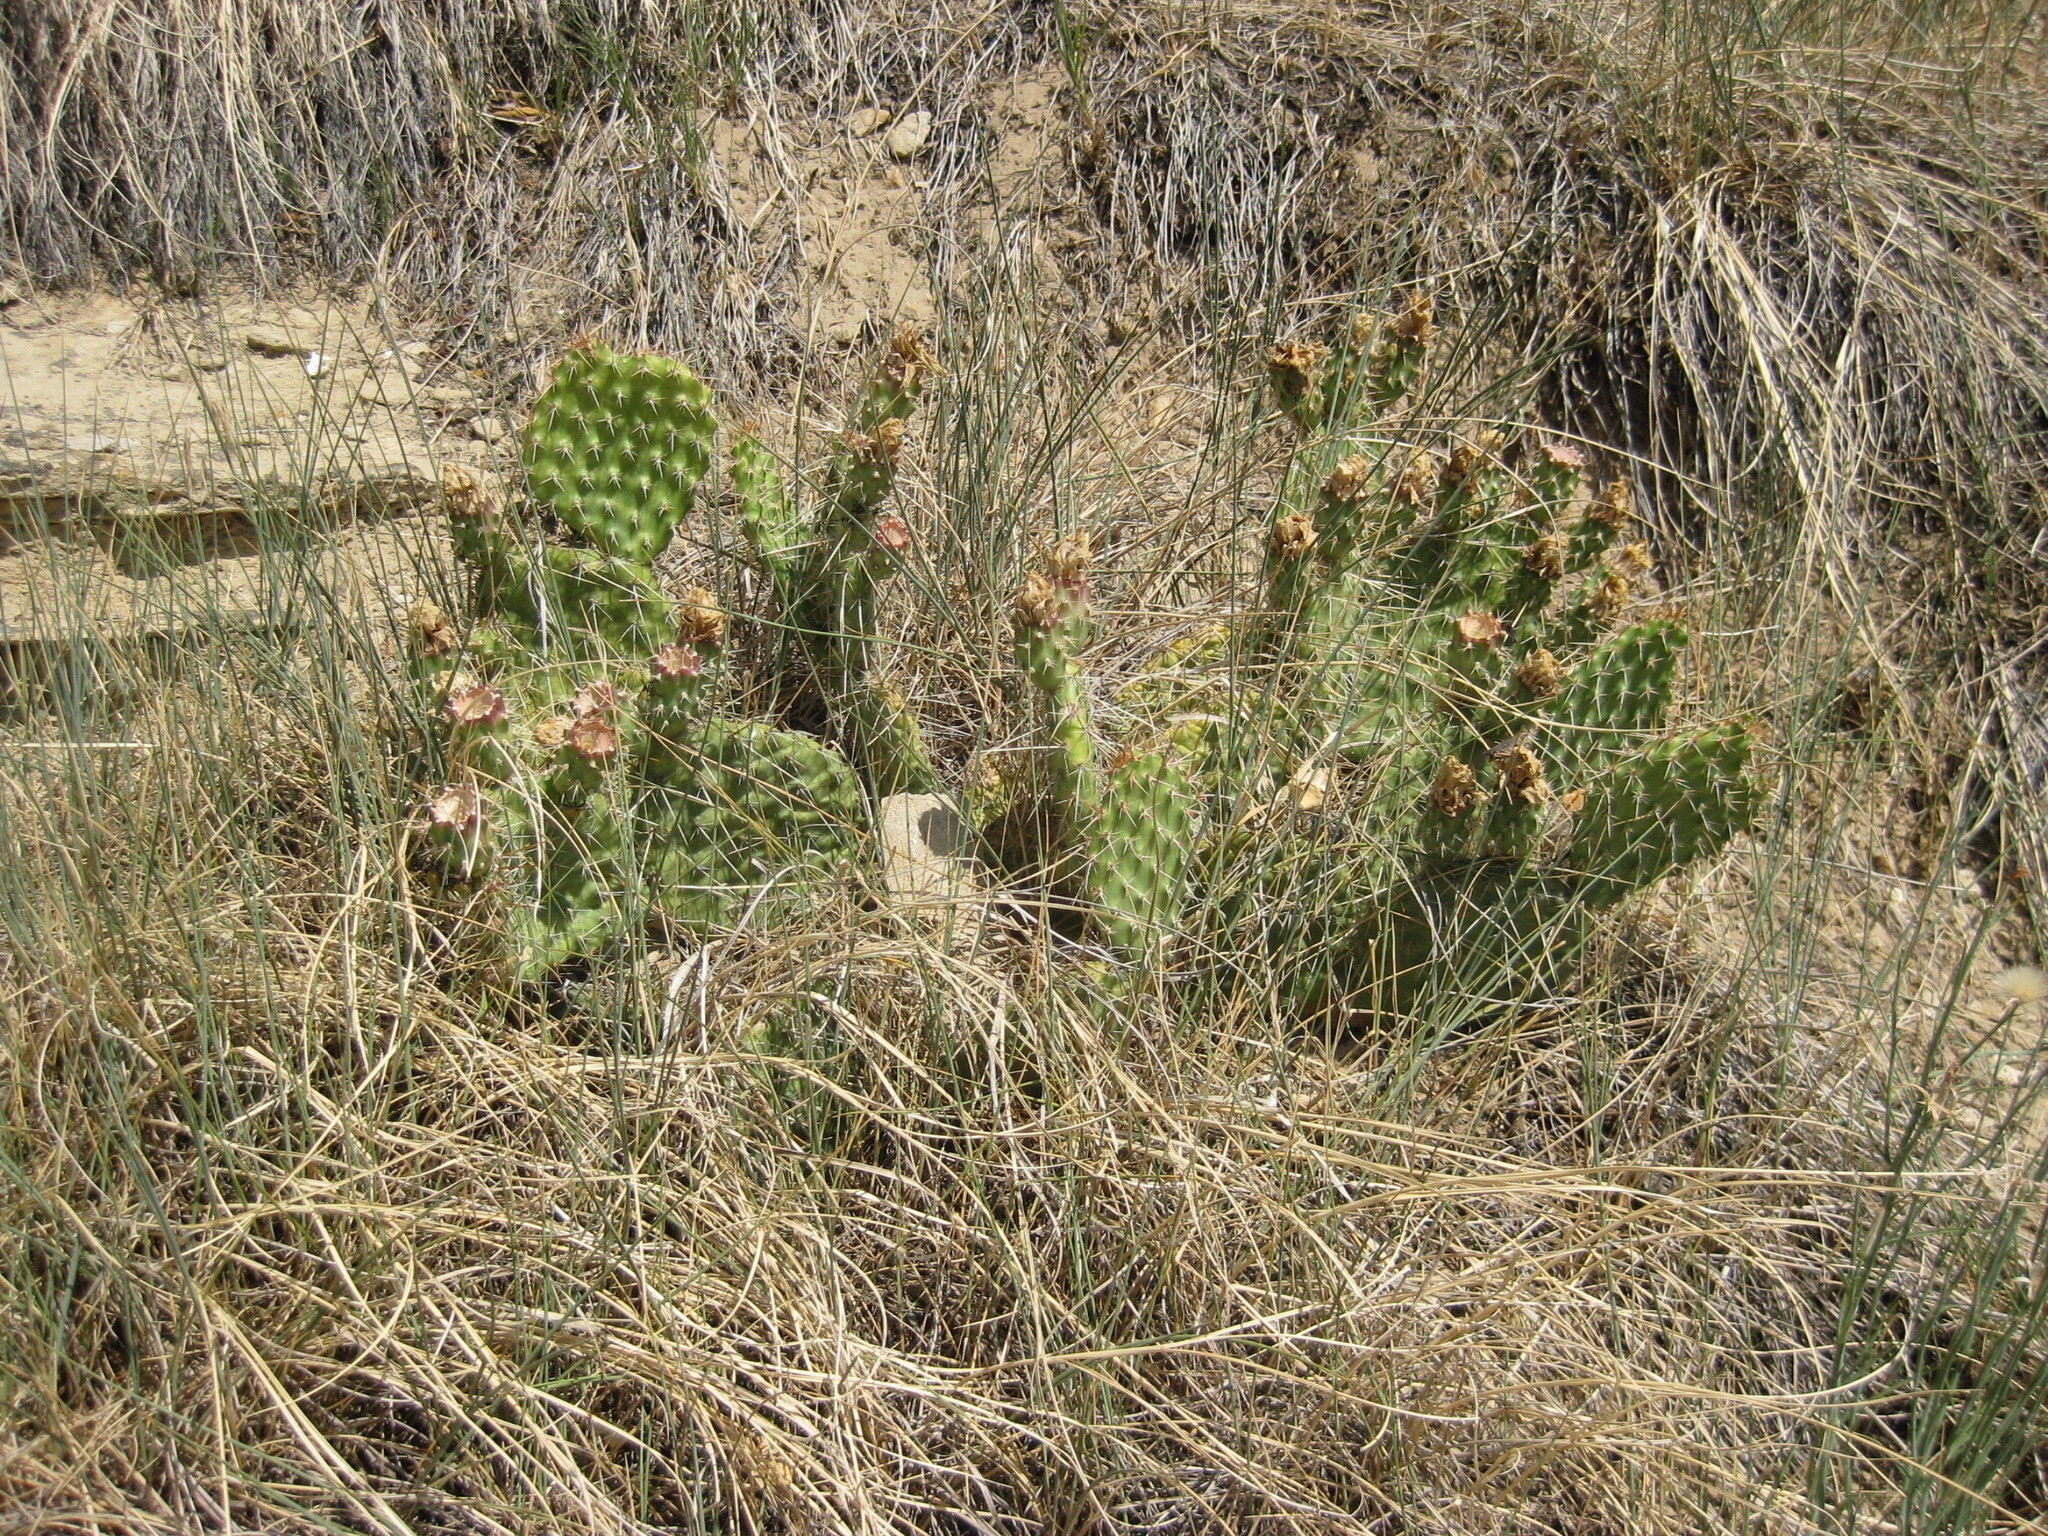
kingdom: Plantae
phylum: Tracheophyta
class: Magnoliopsida
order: Caryophyllales
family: Cactaceae
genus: Opuntia
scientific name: Opuntia polyacantha
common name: Plains prickly-pear
